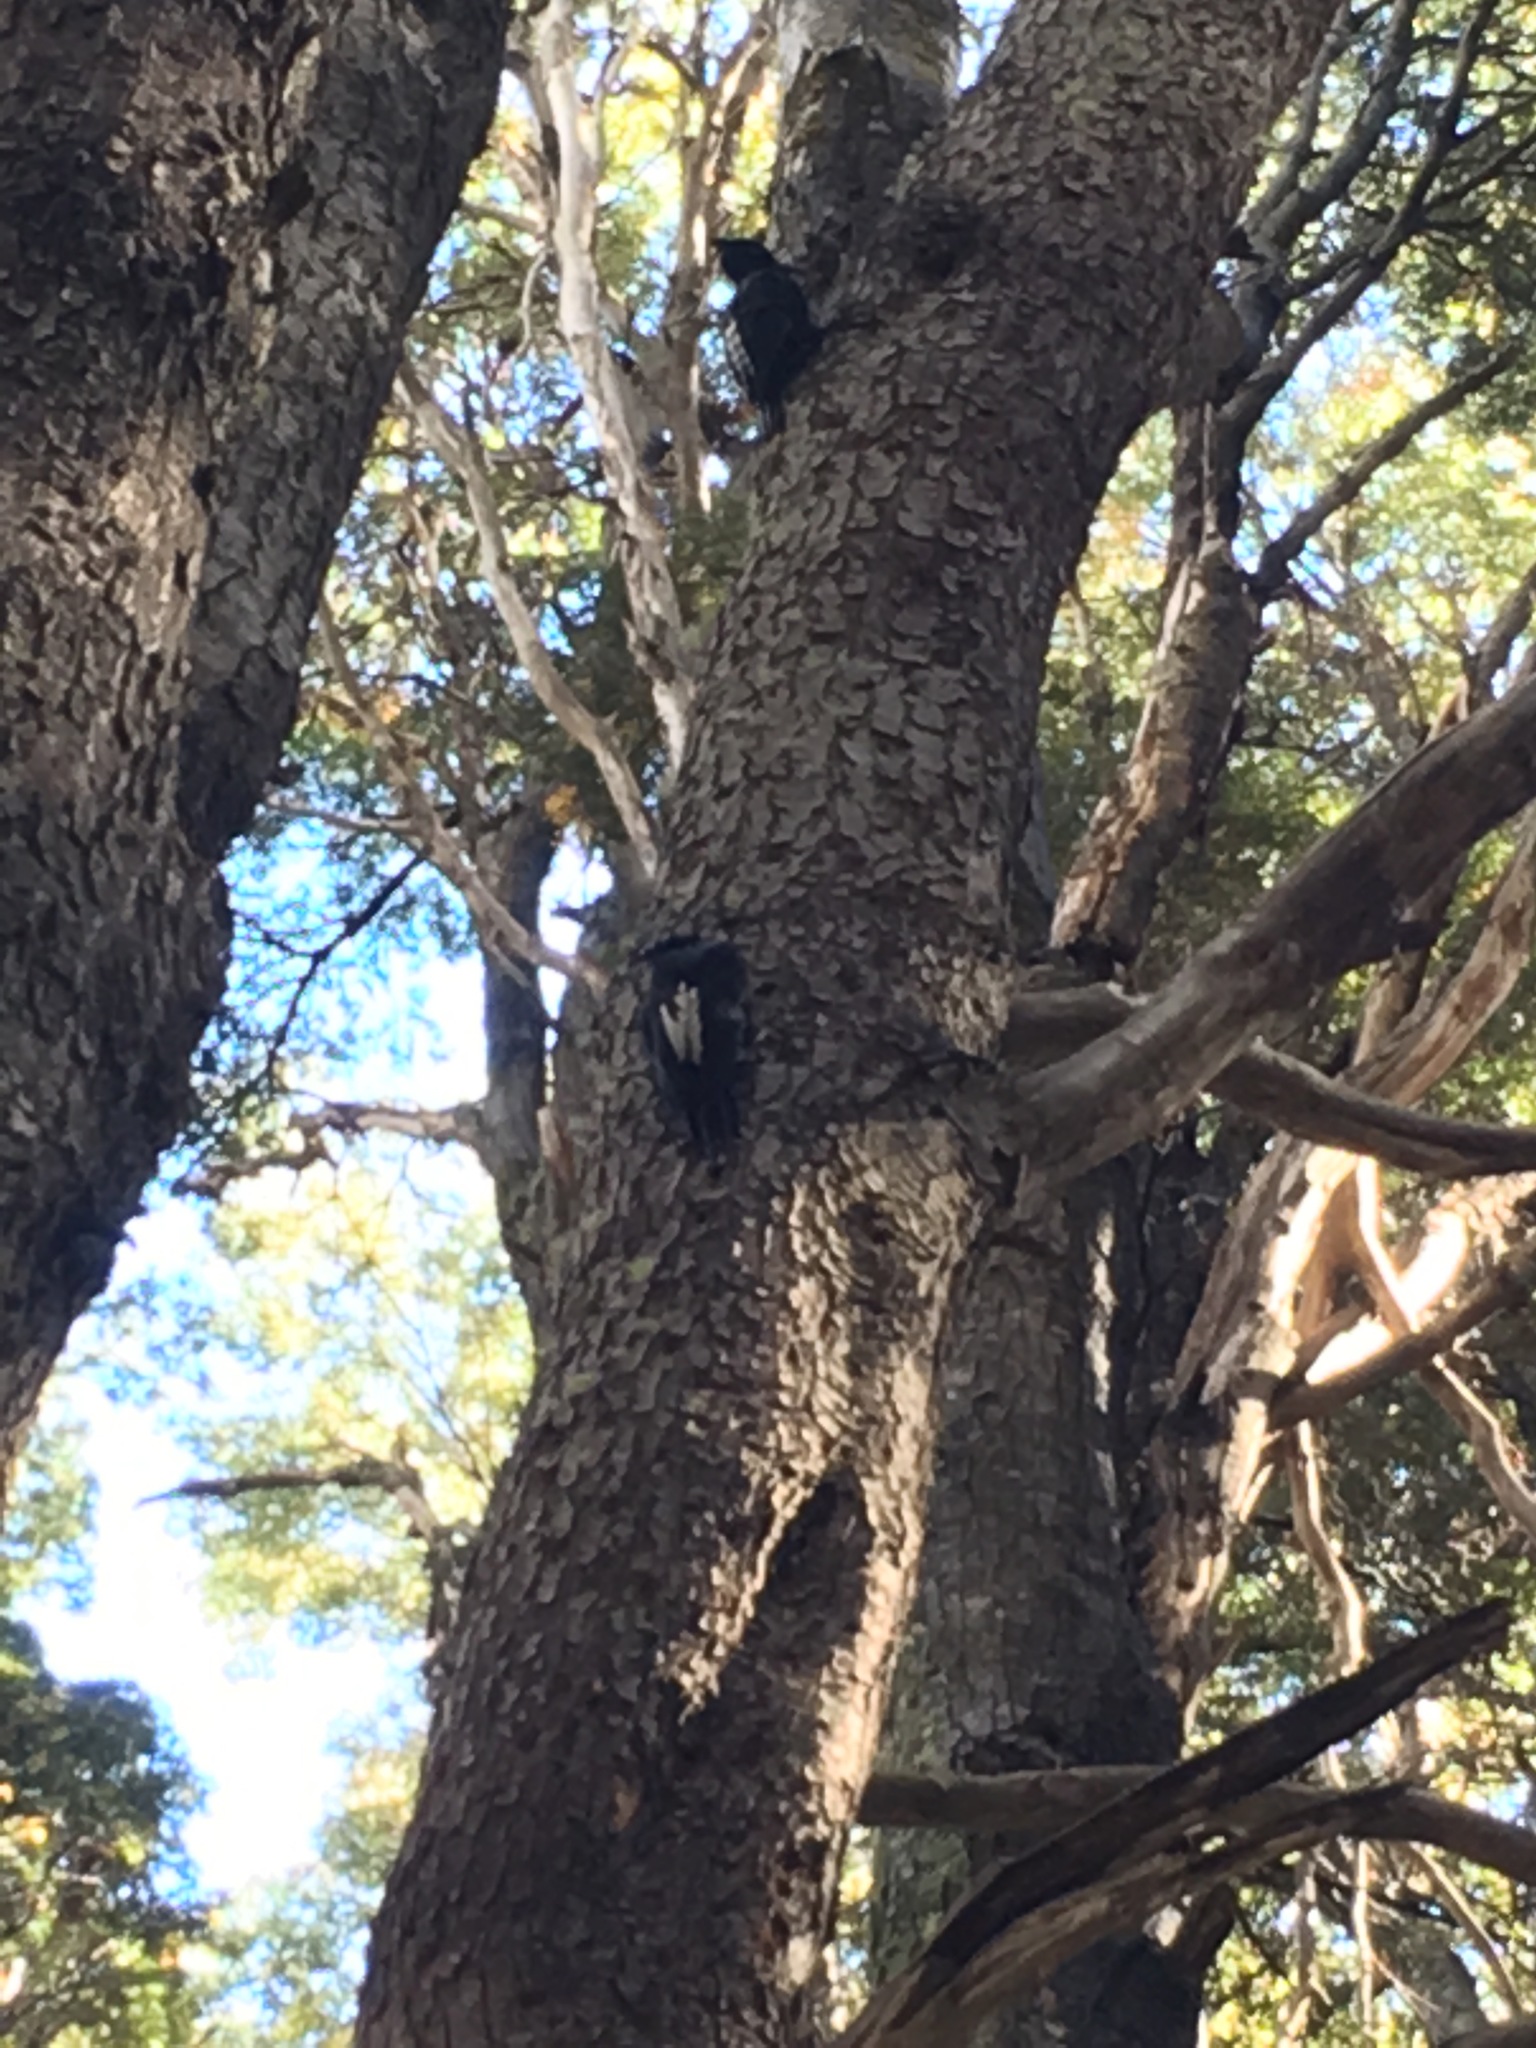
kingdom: Animalia
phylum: Chordata
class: Aves
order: Piciformes
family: Picidae
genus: Campephilus
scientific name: Campephilus magellanicus
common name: Magellanic woodpecker
